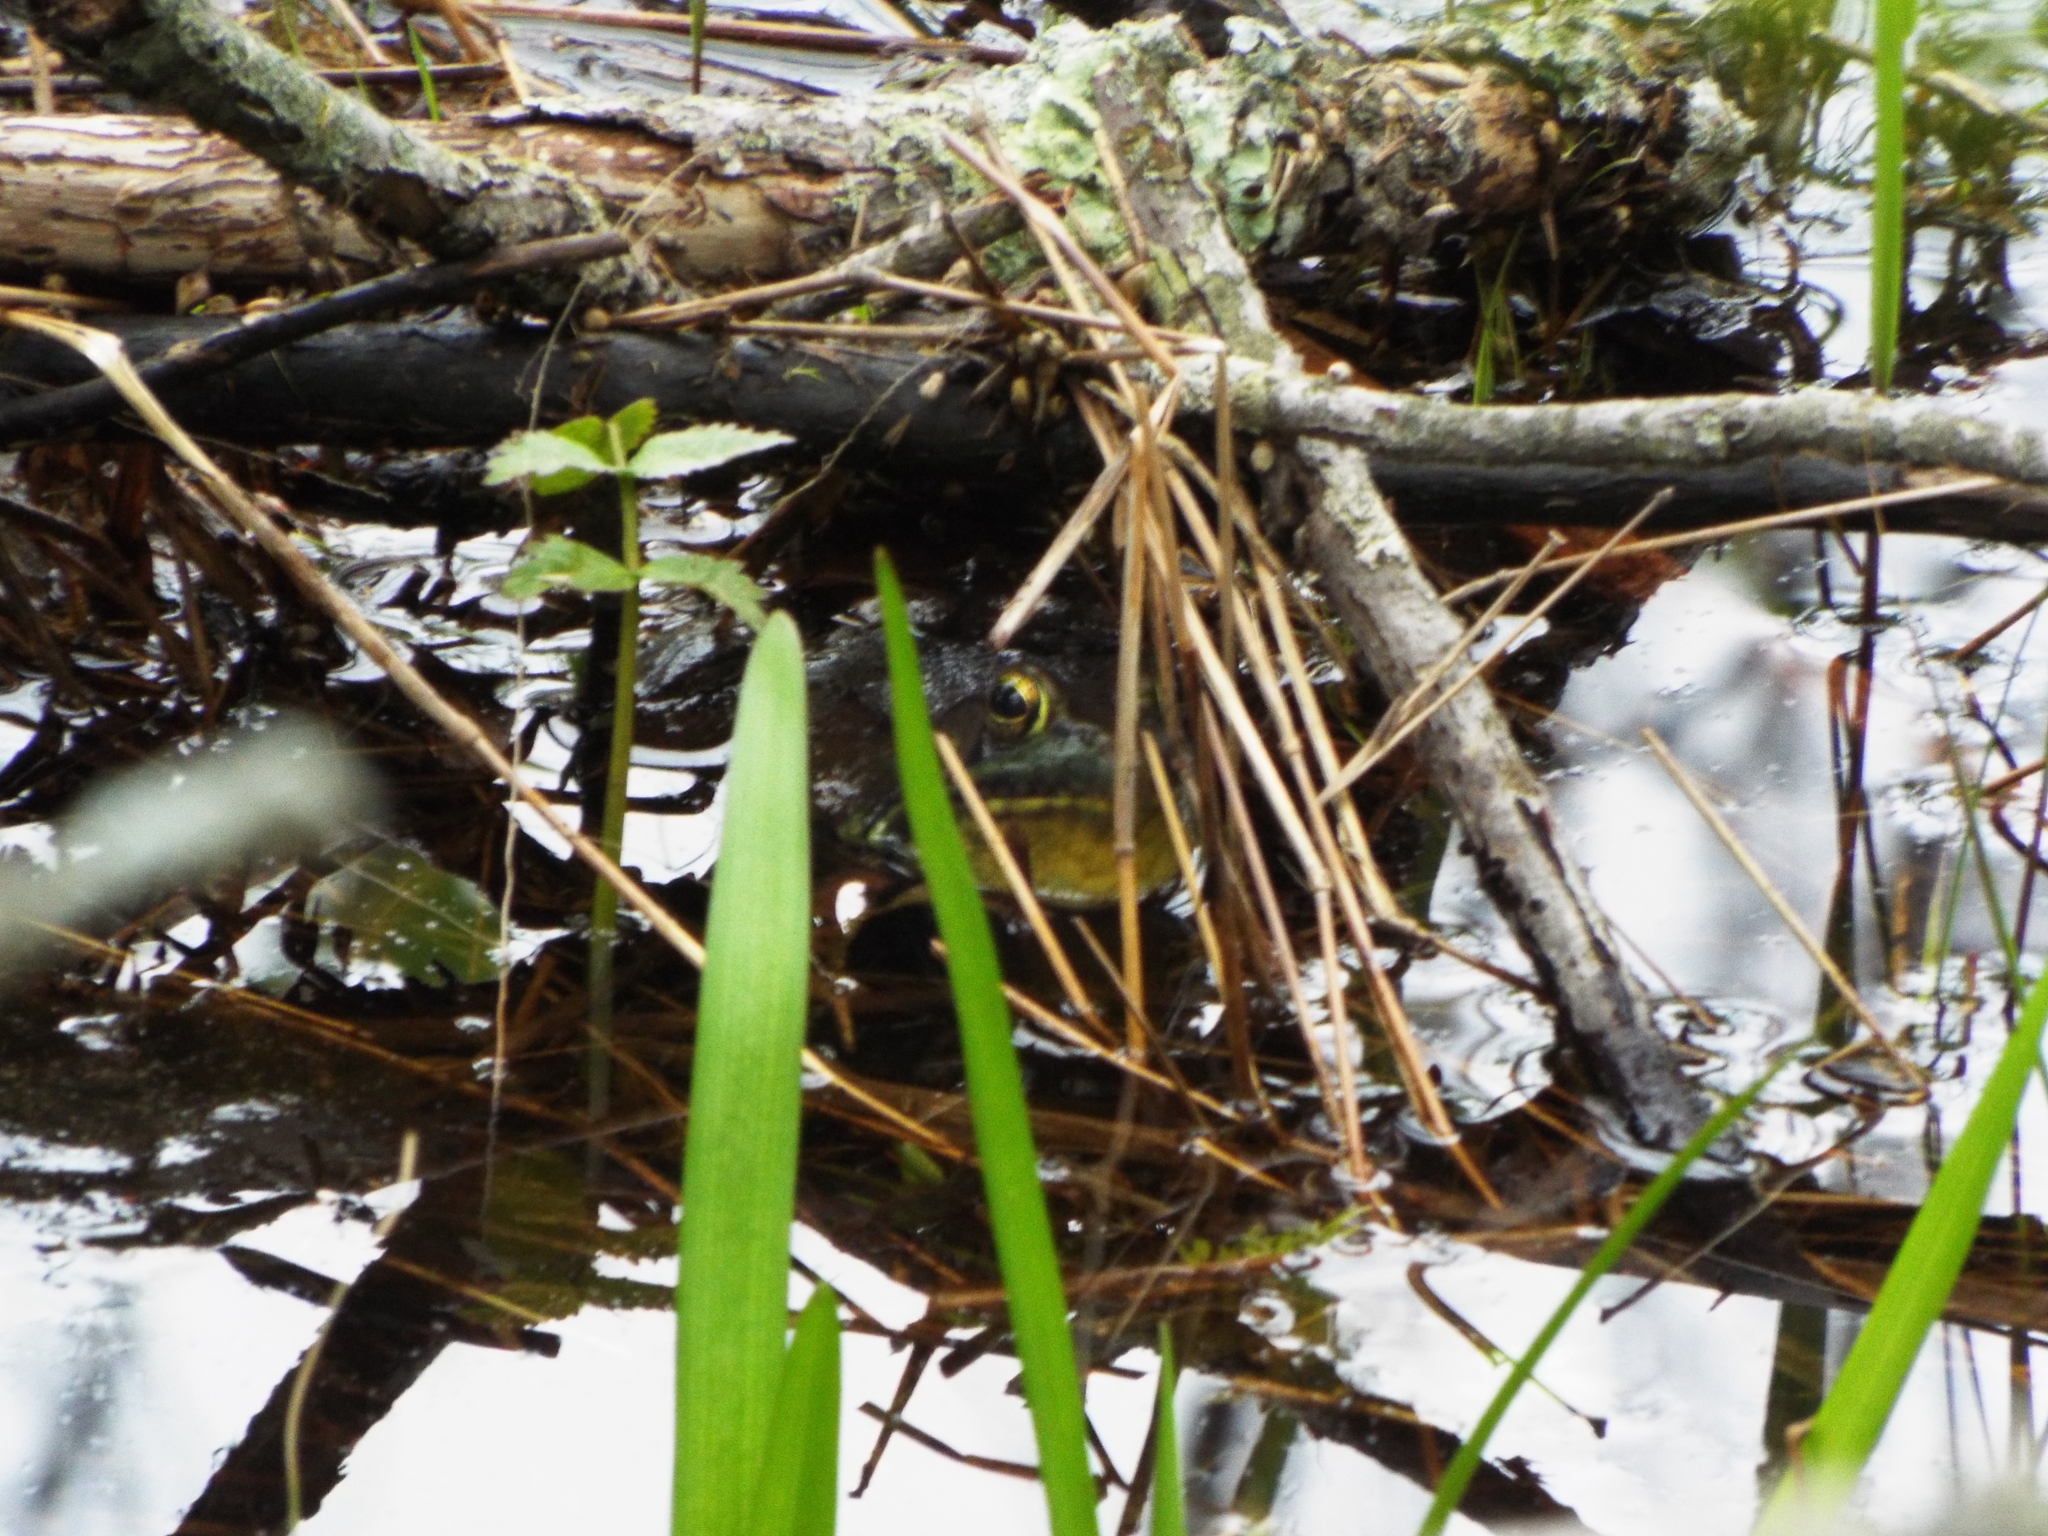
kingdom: Animalia
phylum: Chordata
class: Amphibia
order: Anura
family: Ranidae
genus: Lithobates
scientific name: Lithobates catesbeianus
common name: American bullfrog
